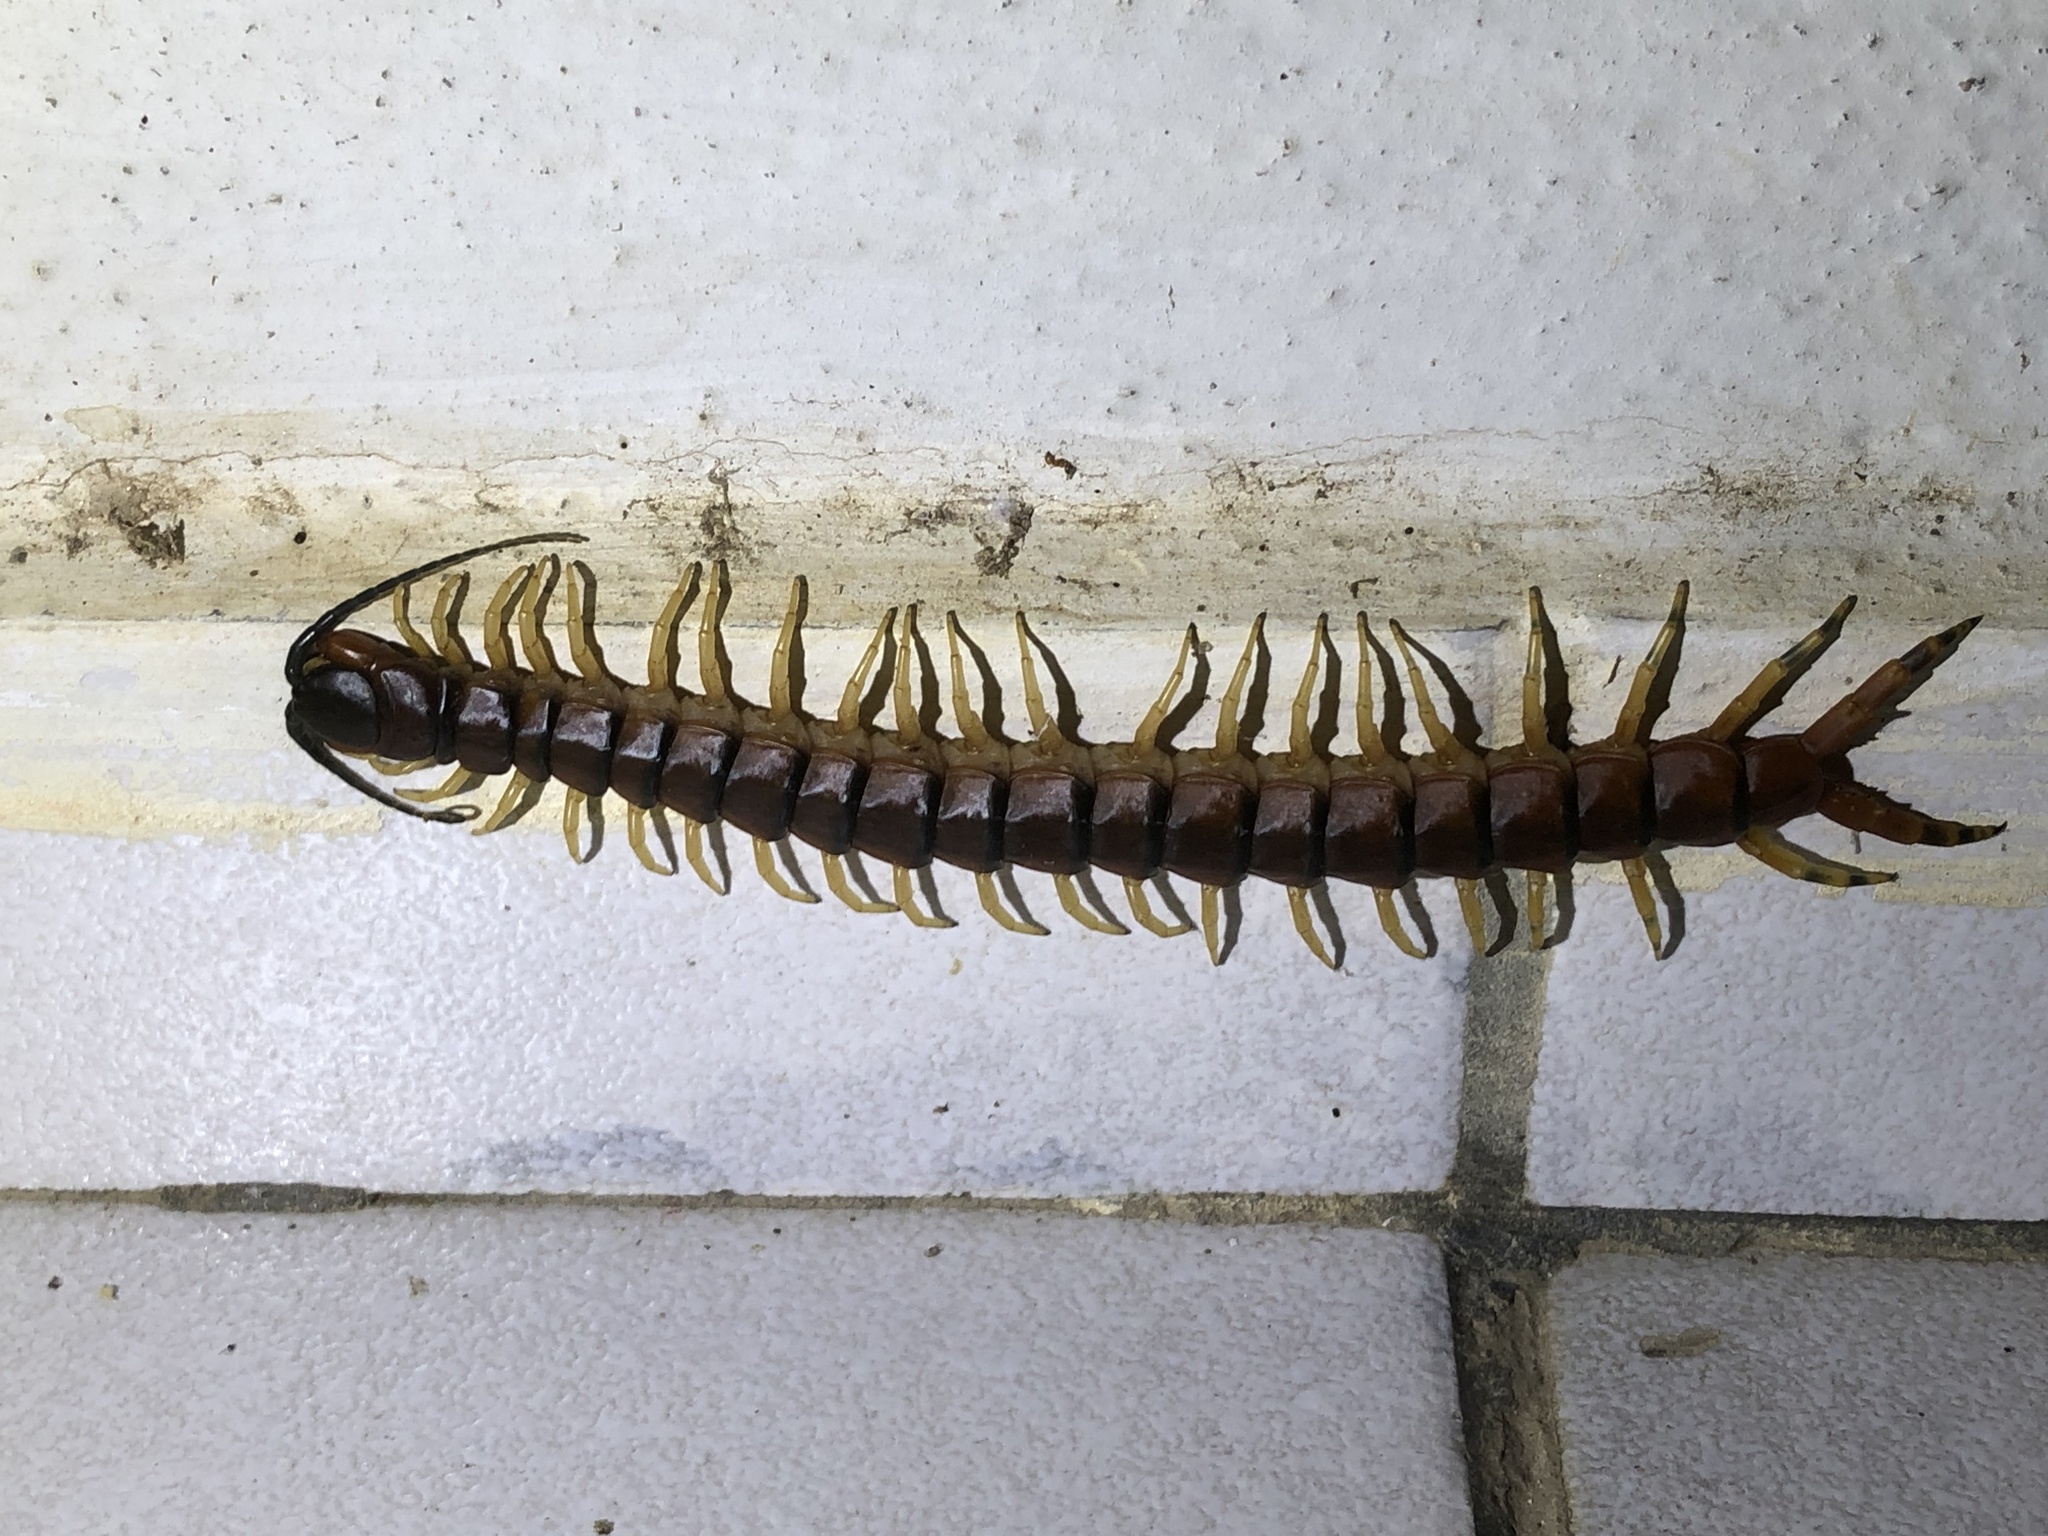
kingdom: Animalia
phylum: Arthropoda
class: Chilopoda
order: Scolopendromorpha
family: Scolopendridae
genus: Scolopendra
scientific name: Scolopendra viridicornis
